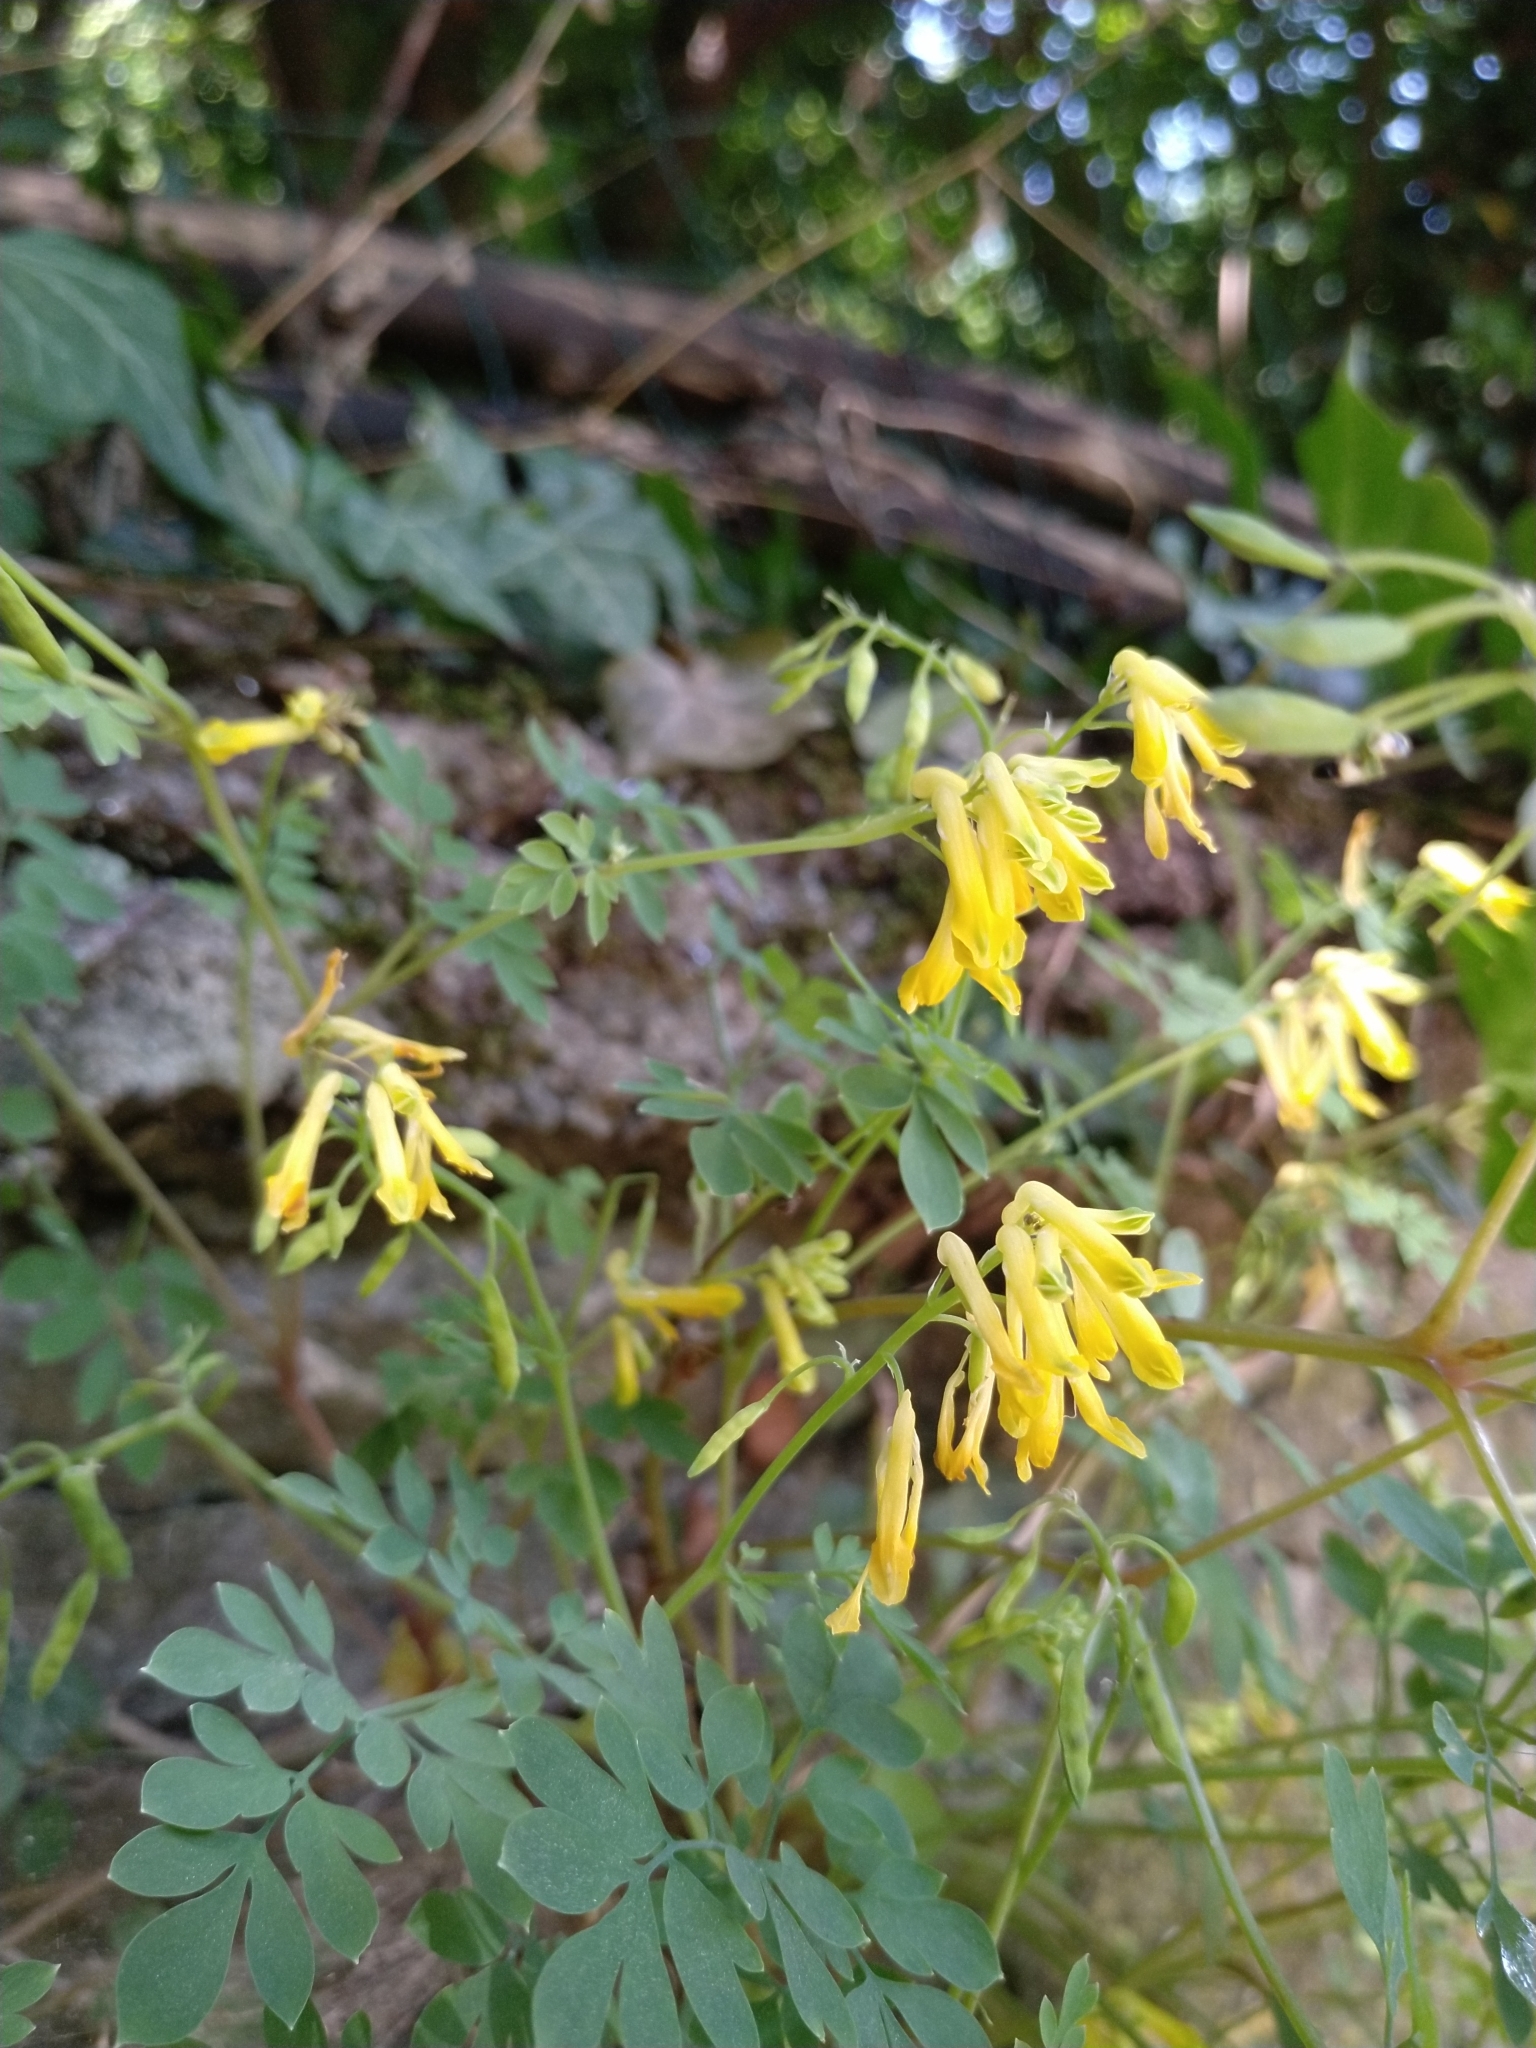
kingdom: Plantae
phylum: Tracheophyta
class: Magnoliopsida
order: Ranunculales
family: Papaveraceae
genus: Pseudofumaria
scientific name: Pseudofumaria lutea
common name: Yellow corydalis
